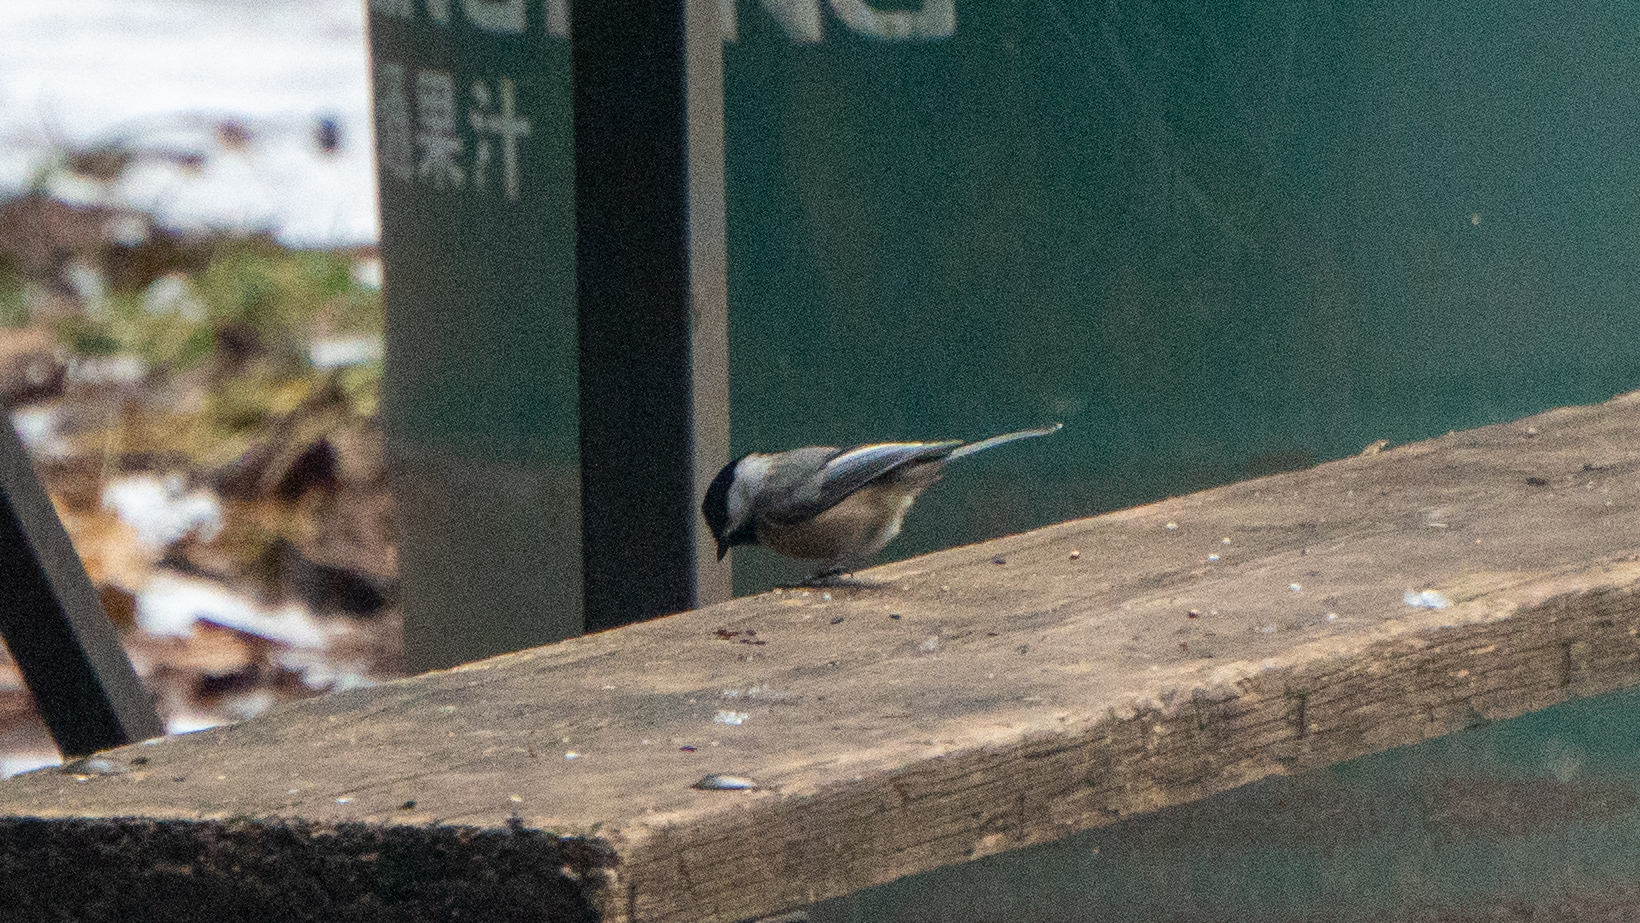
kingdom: Animalia
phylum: Chordata
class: Aves
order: Passeriformes
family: Paridae
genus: Poecile
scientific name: Poecile atricapillus
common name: Black-capped chickadee
